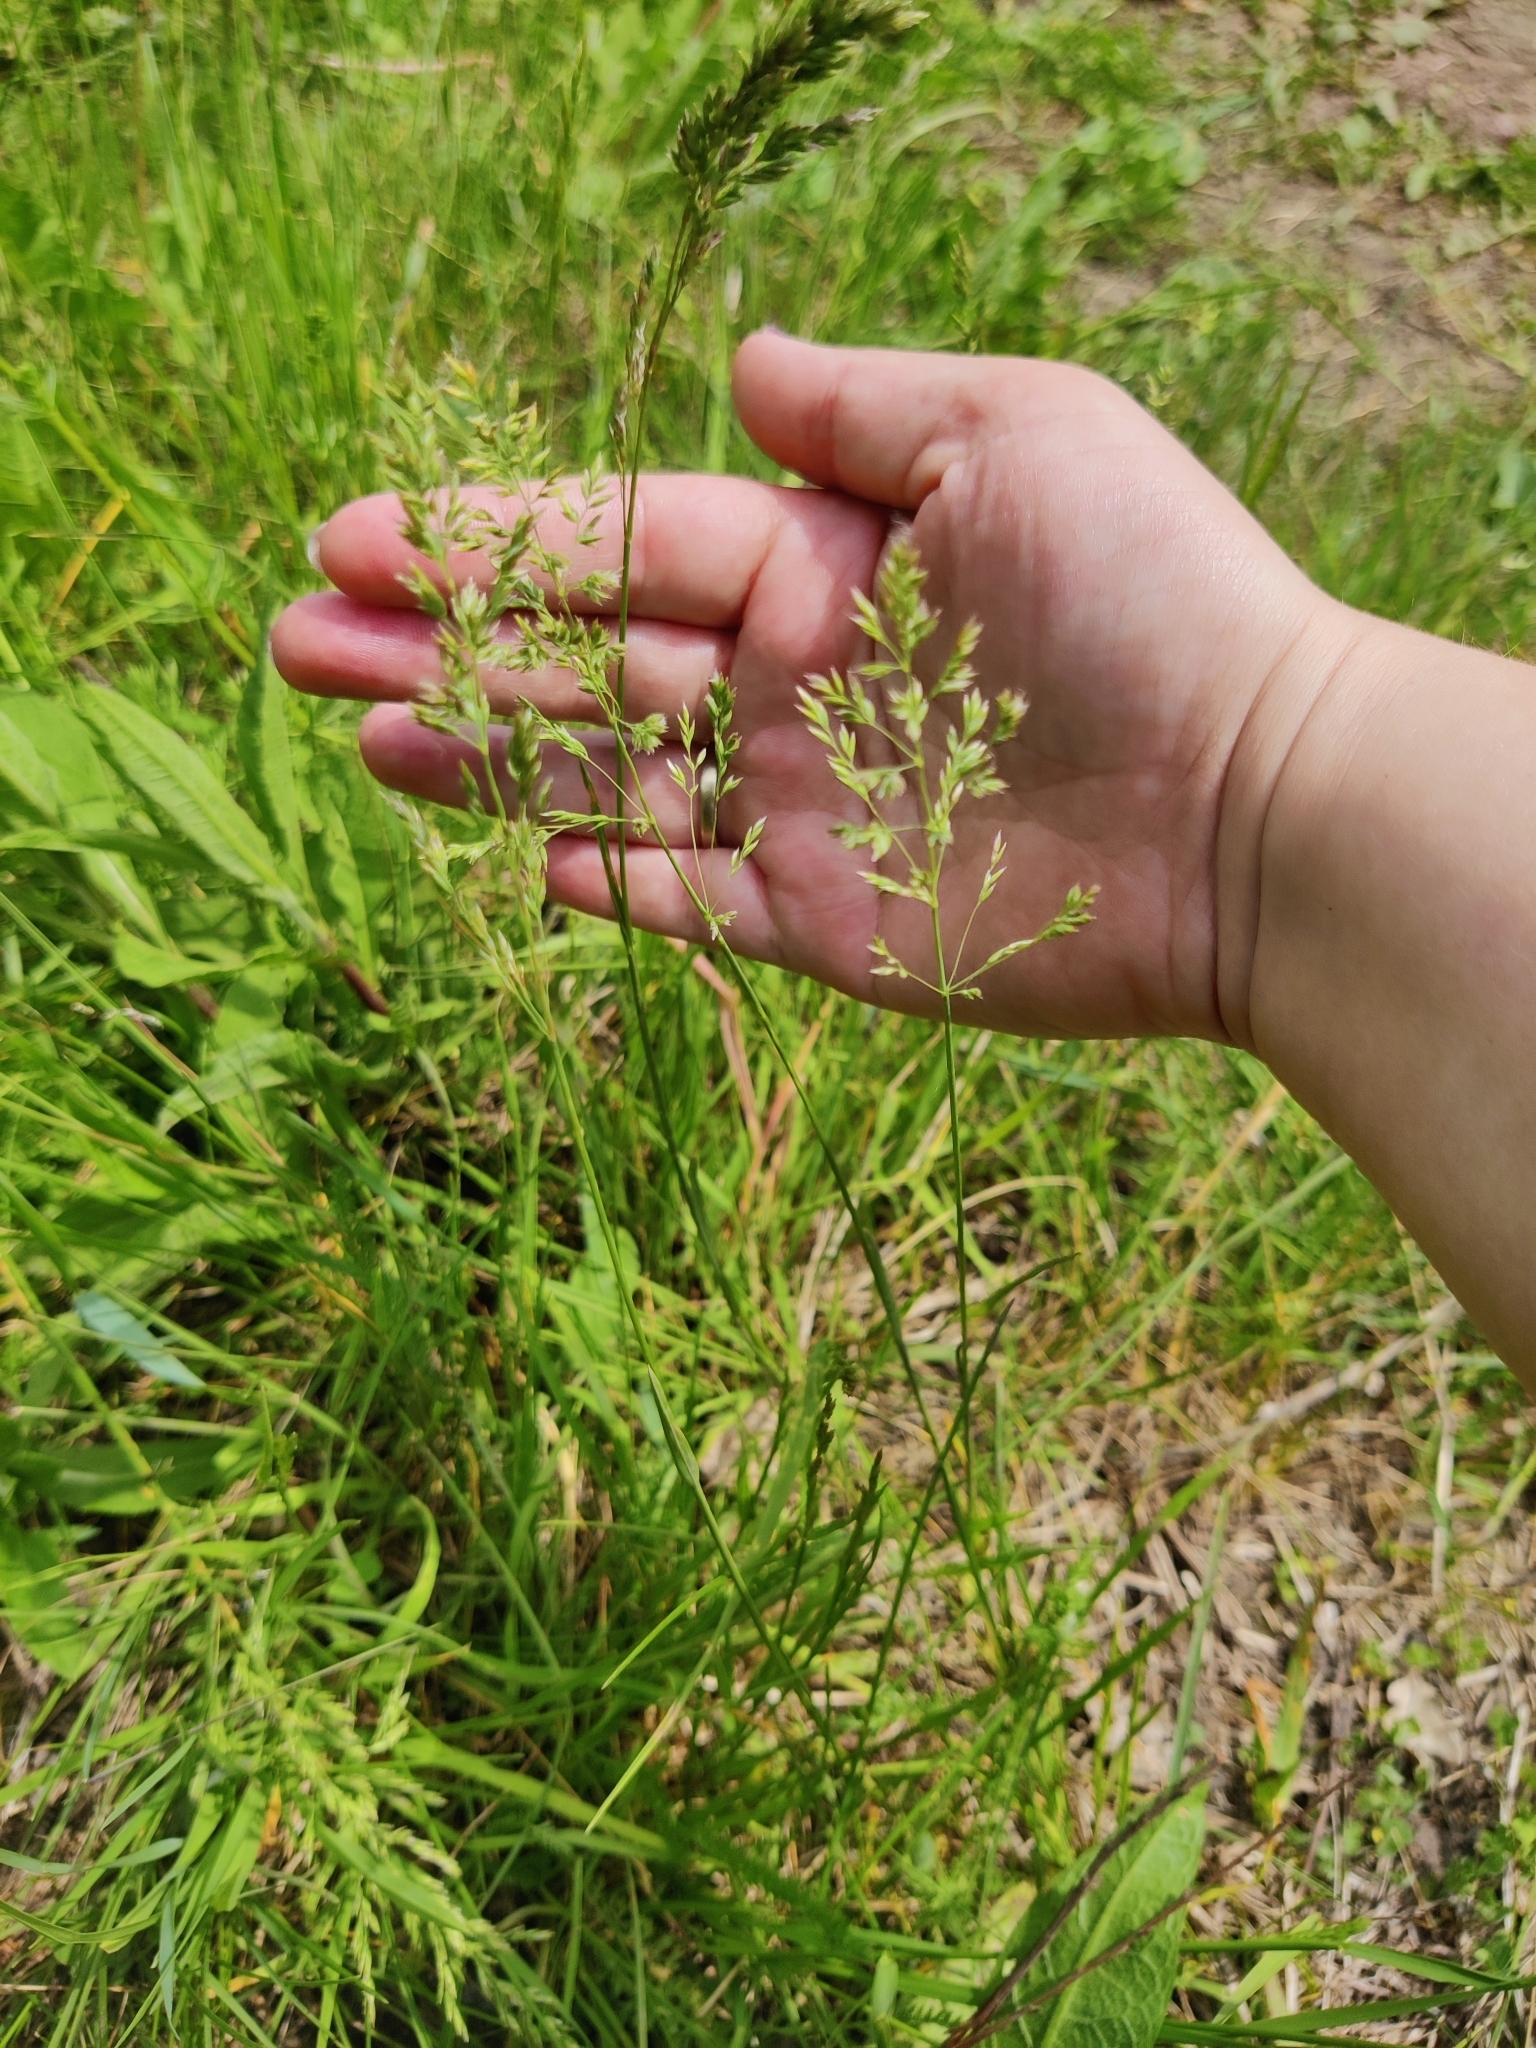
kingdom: Plantae
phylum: Tracheophyta
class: Liliopsida
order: Poales
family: Poaceae
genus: Poa
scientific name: Poa pratensis
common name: Kentucky bluegrass
